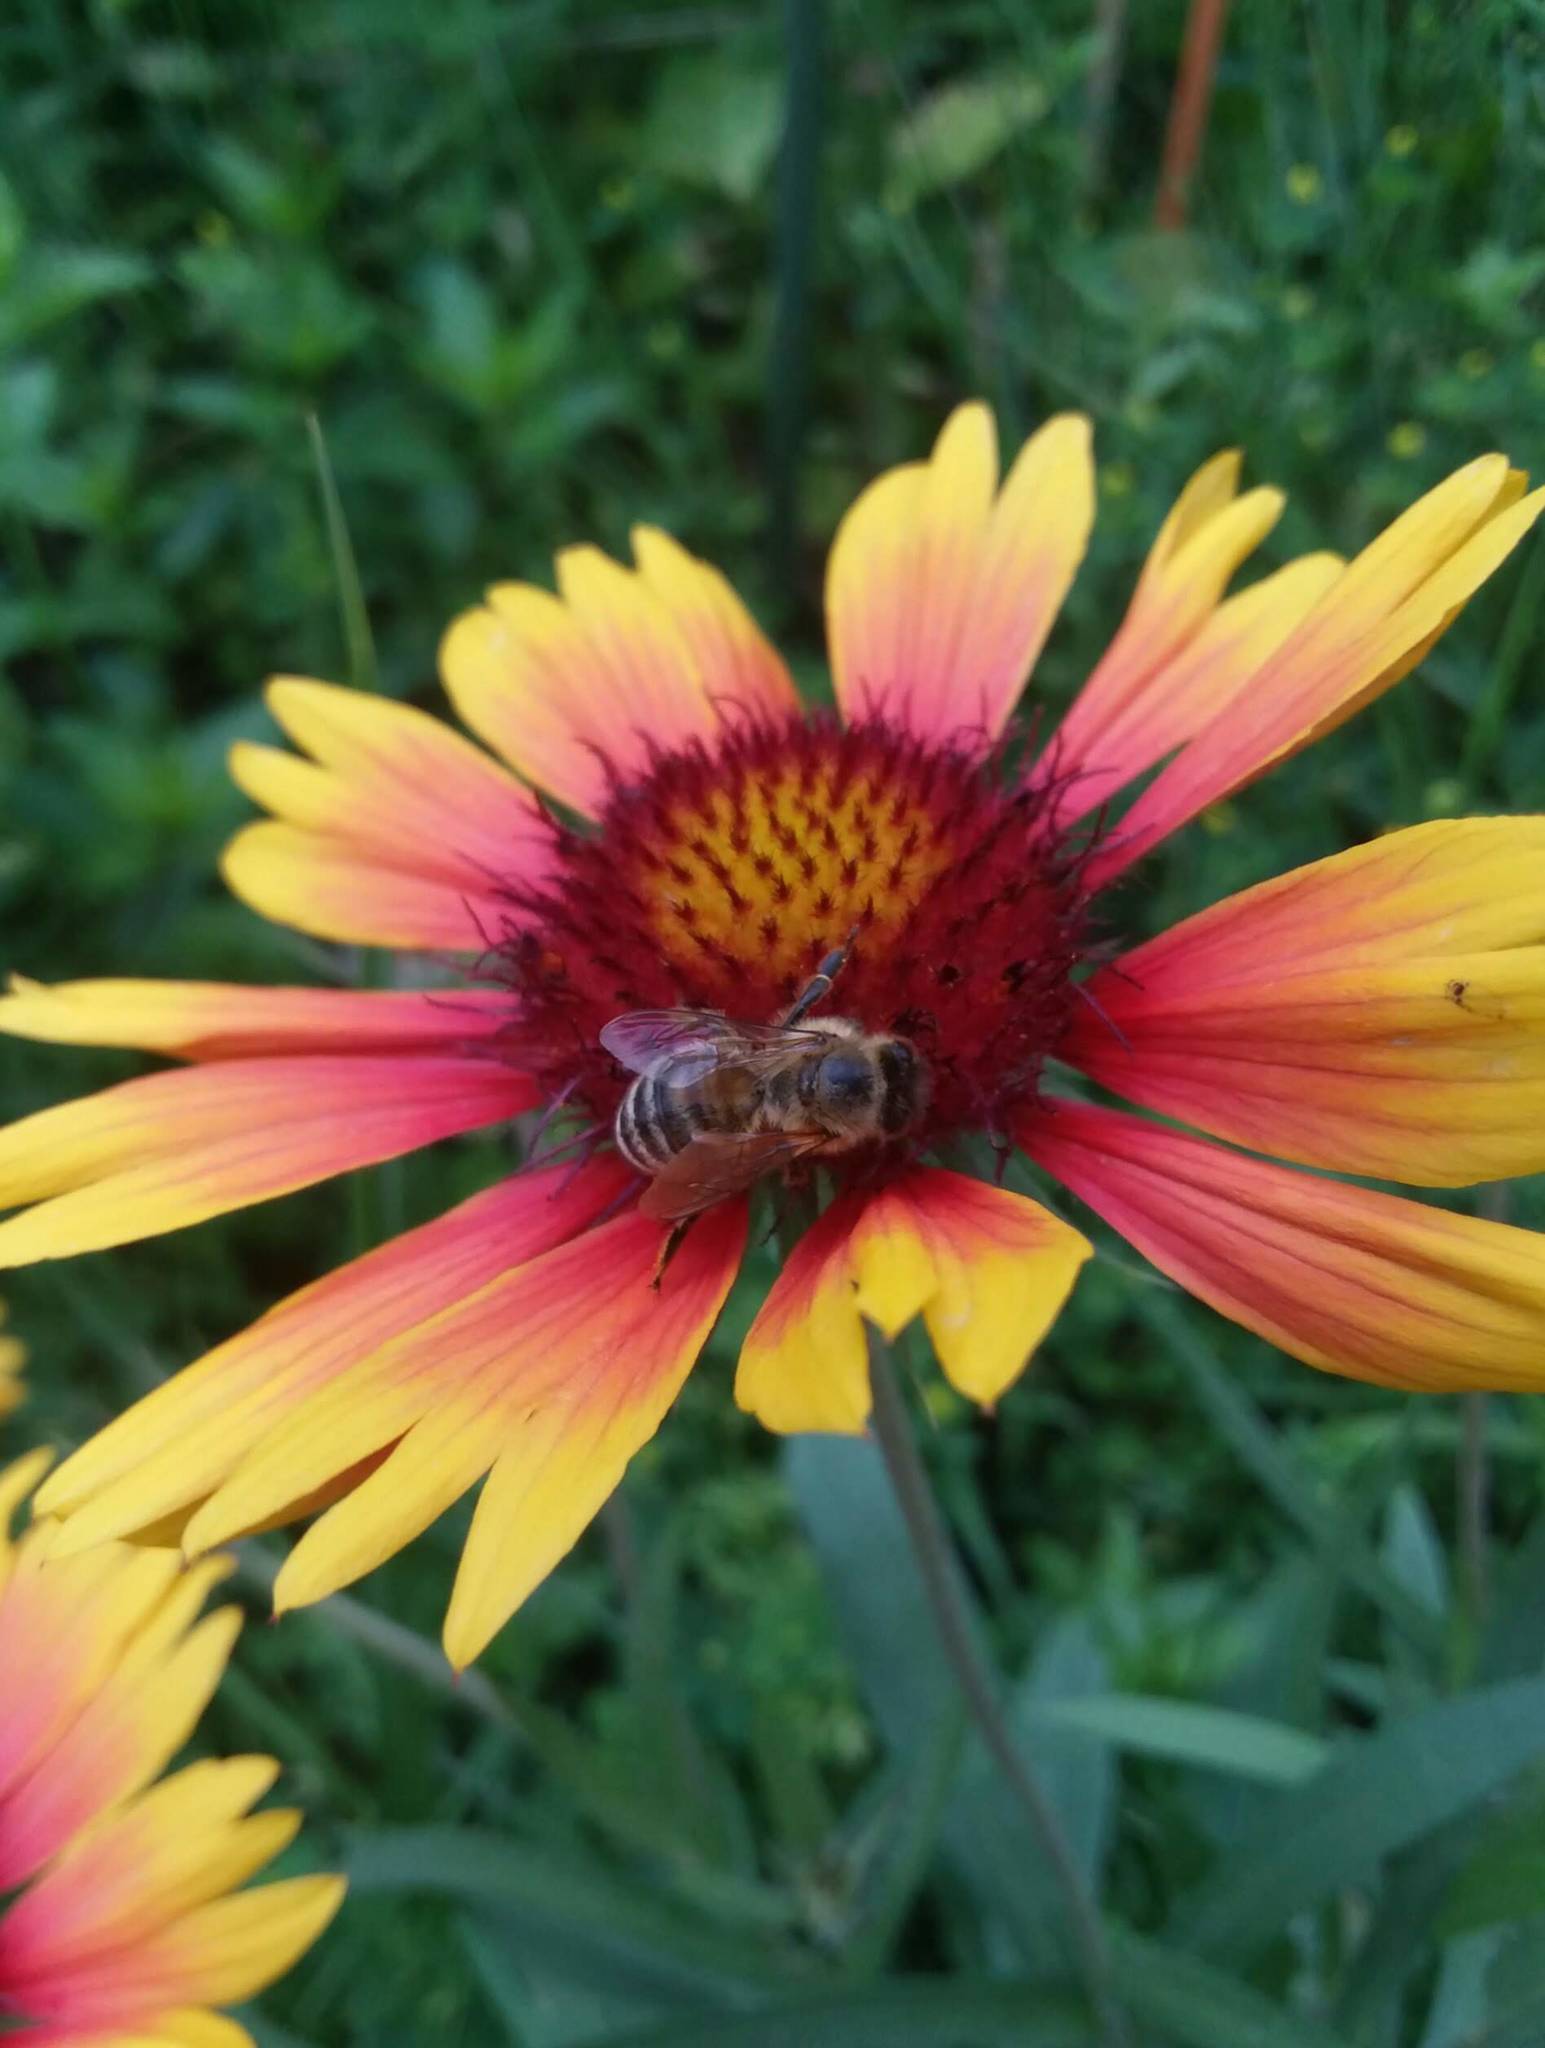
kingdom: Animalia
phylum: Arthropoda
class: Insecta
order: Hymenoptera
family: Apidae
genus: Apis
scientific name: Apis mellifera
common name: Honey bee
